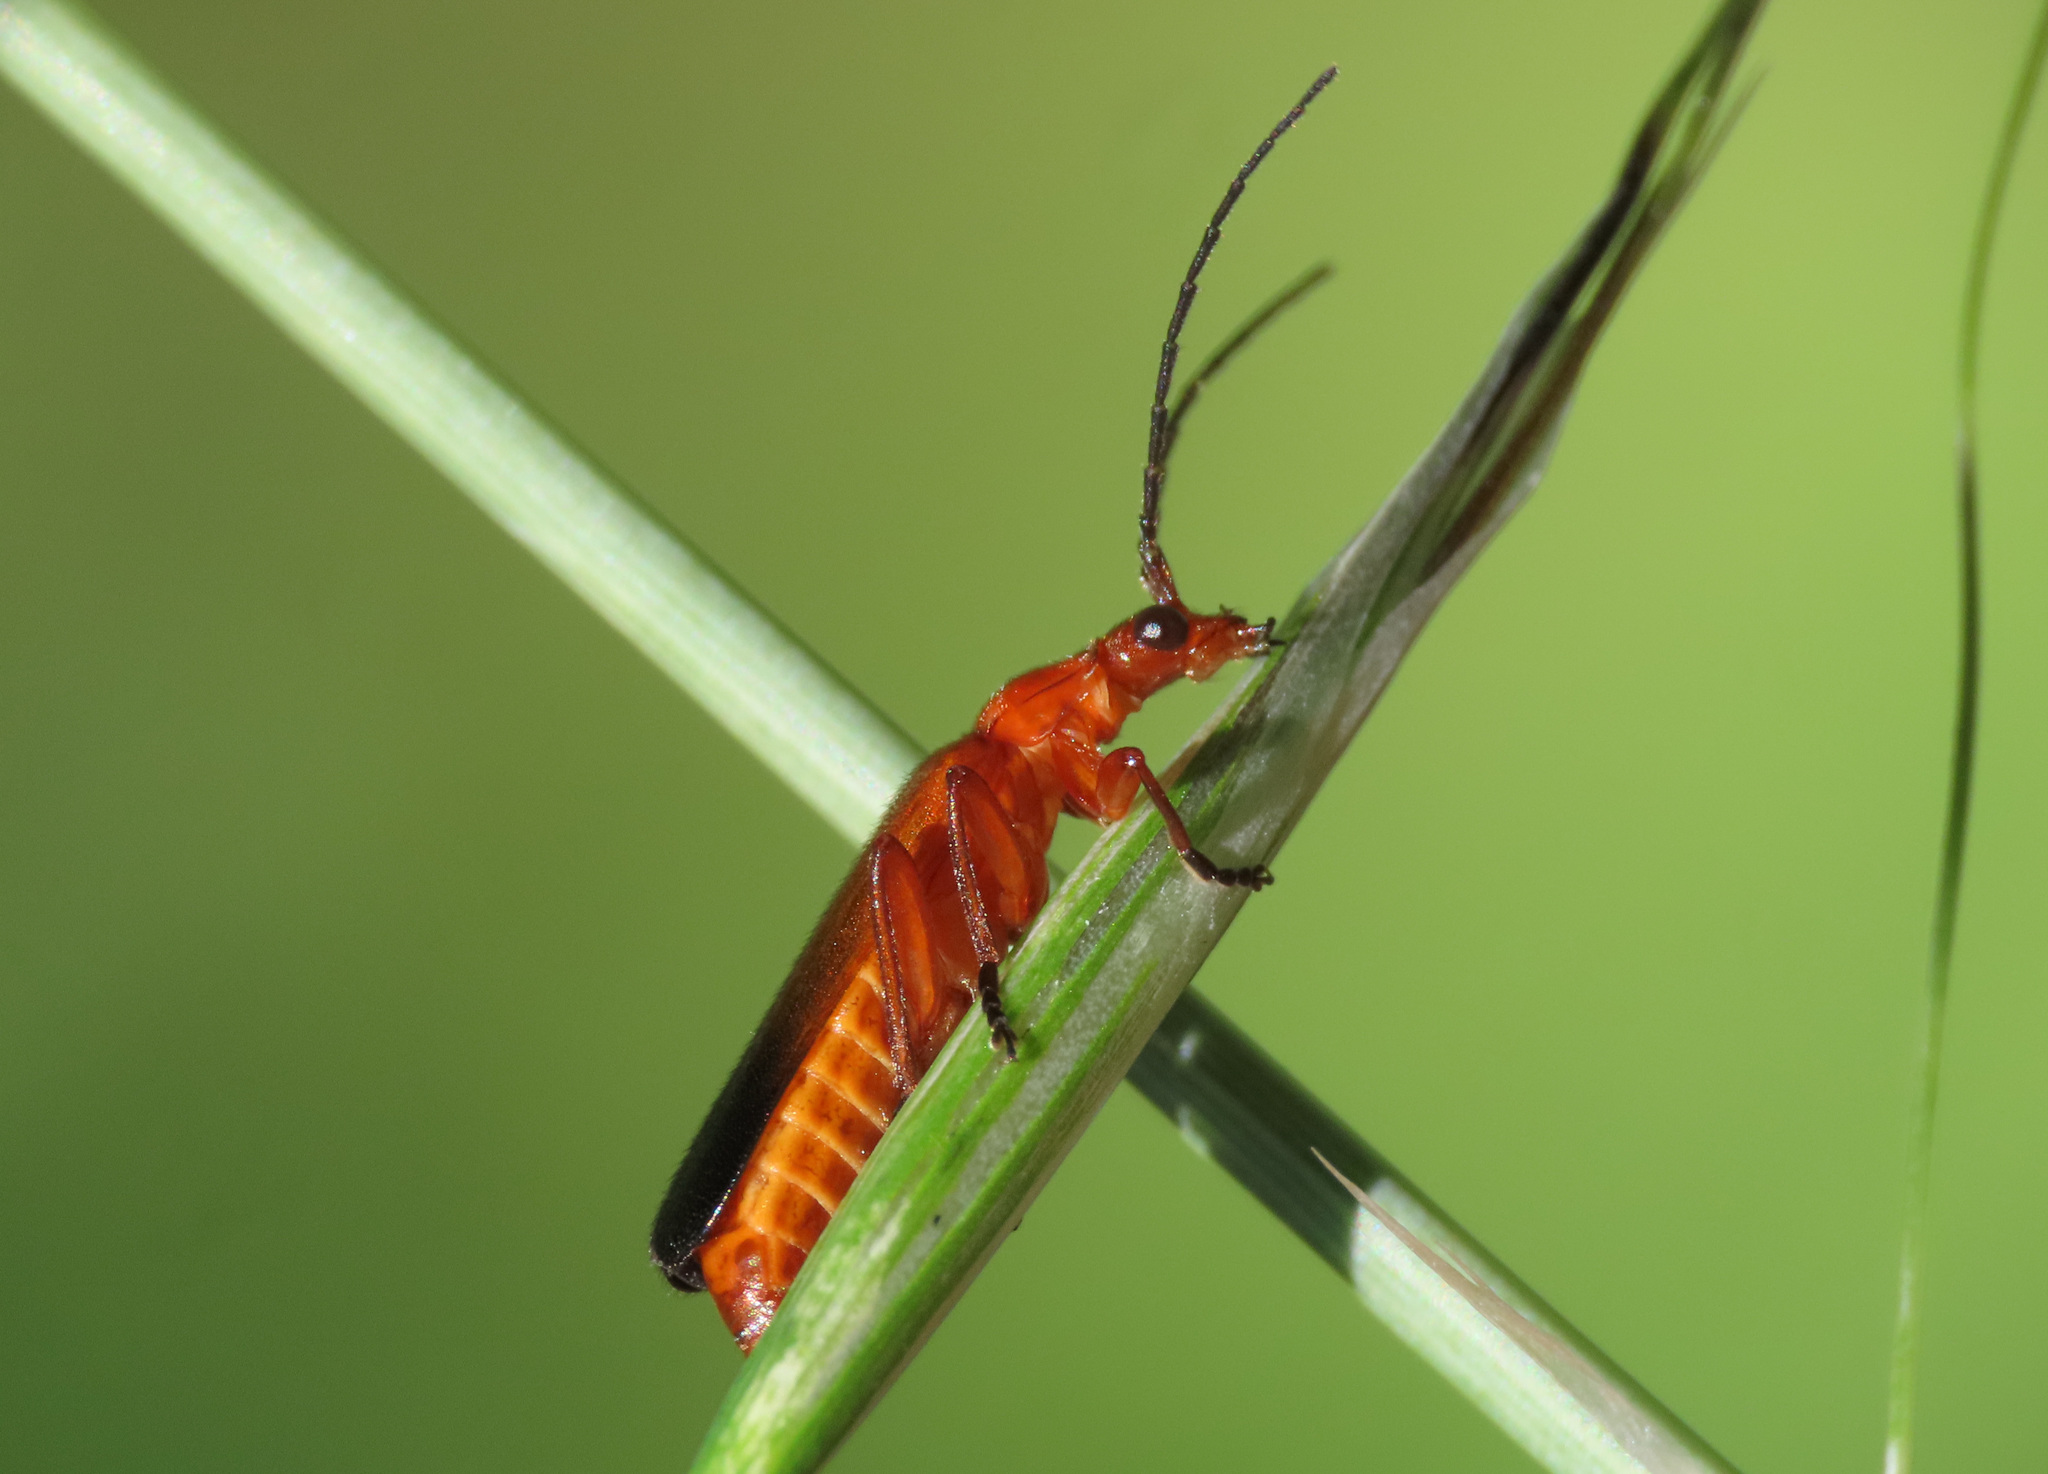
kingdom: Animalia
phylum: Arthropoda
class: Insecta
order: Coleoptera
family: Cantharidae
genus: Rhagonycha
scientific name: Rhagonycha fulva
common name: Common red soldier beetle
